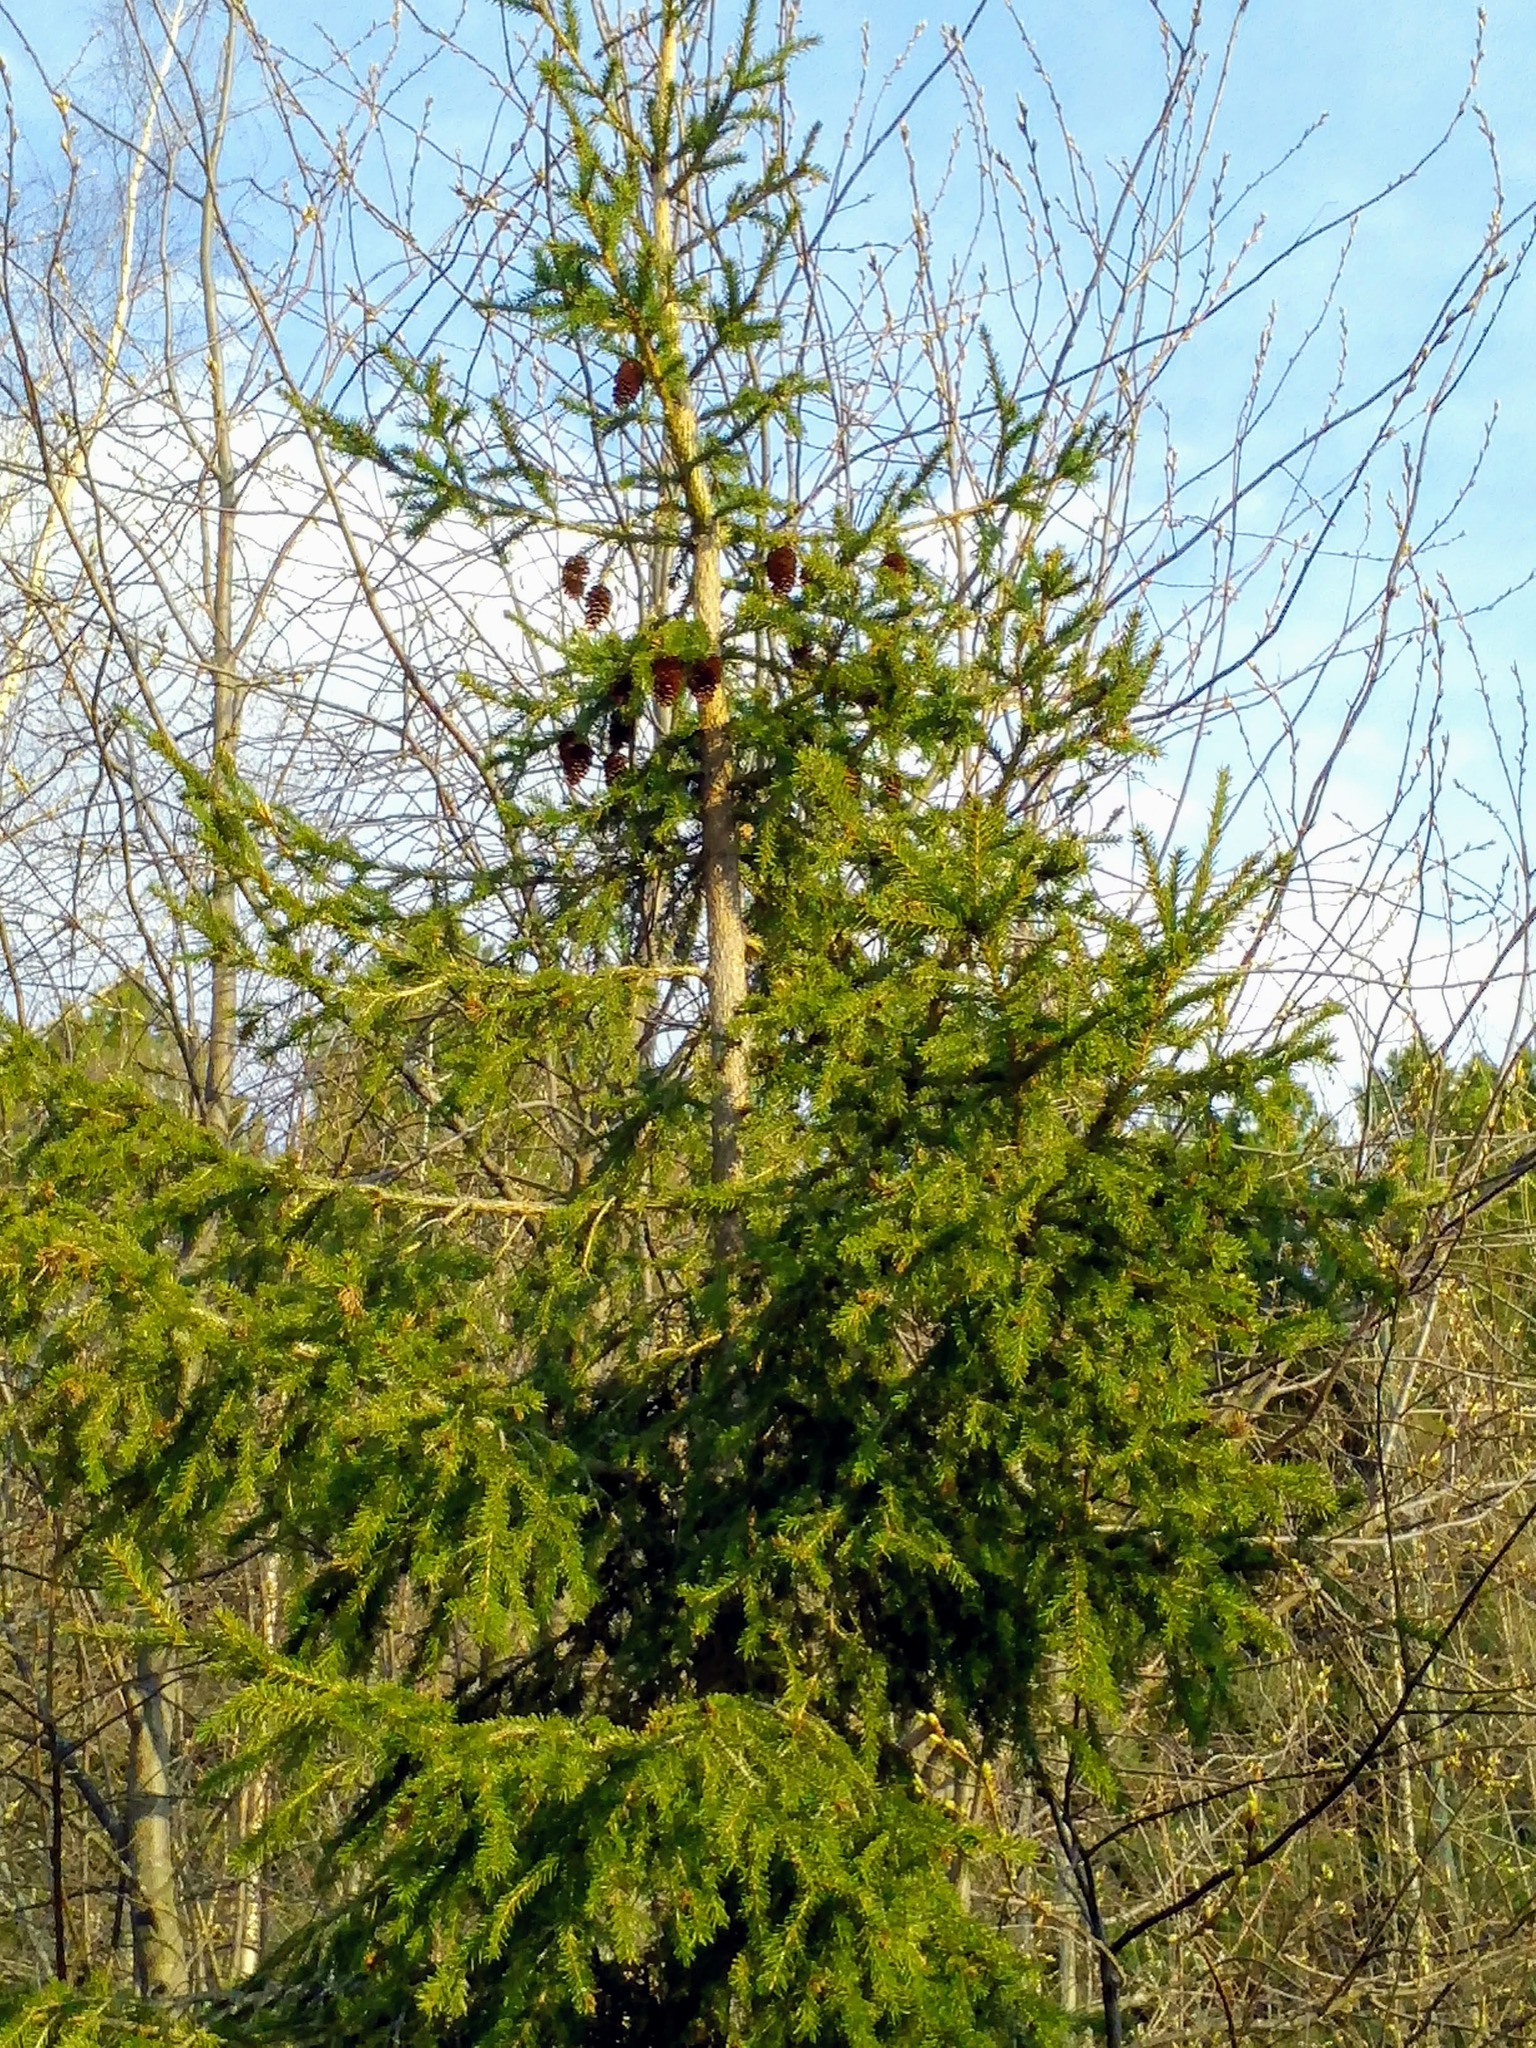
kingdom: Plantae
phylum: Tracheophyta
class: Pinopsida
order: Pinales
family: Pinaceae
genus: Picea
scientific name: Picea obovata
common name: Siberian spruce
